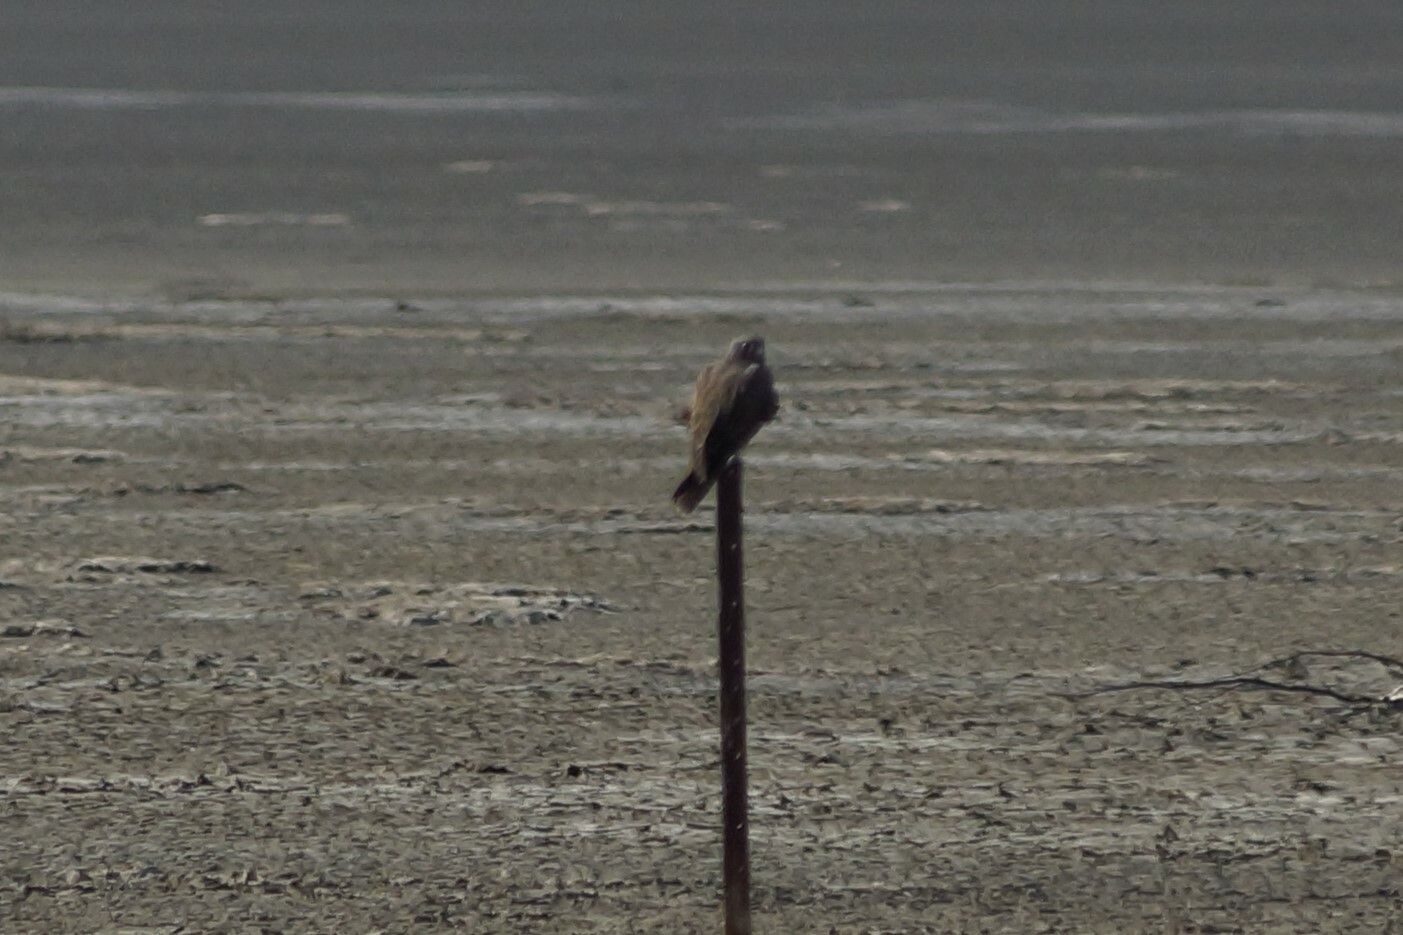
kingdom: Animalia
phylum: Chordata
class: Aves
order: Falconiformes
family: Falconidae
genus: Falco
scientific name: Falco subniger
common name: Black falcon
